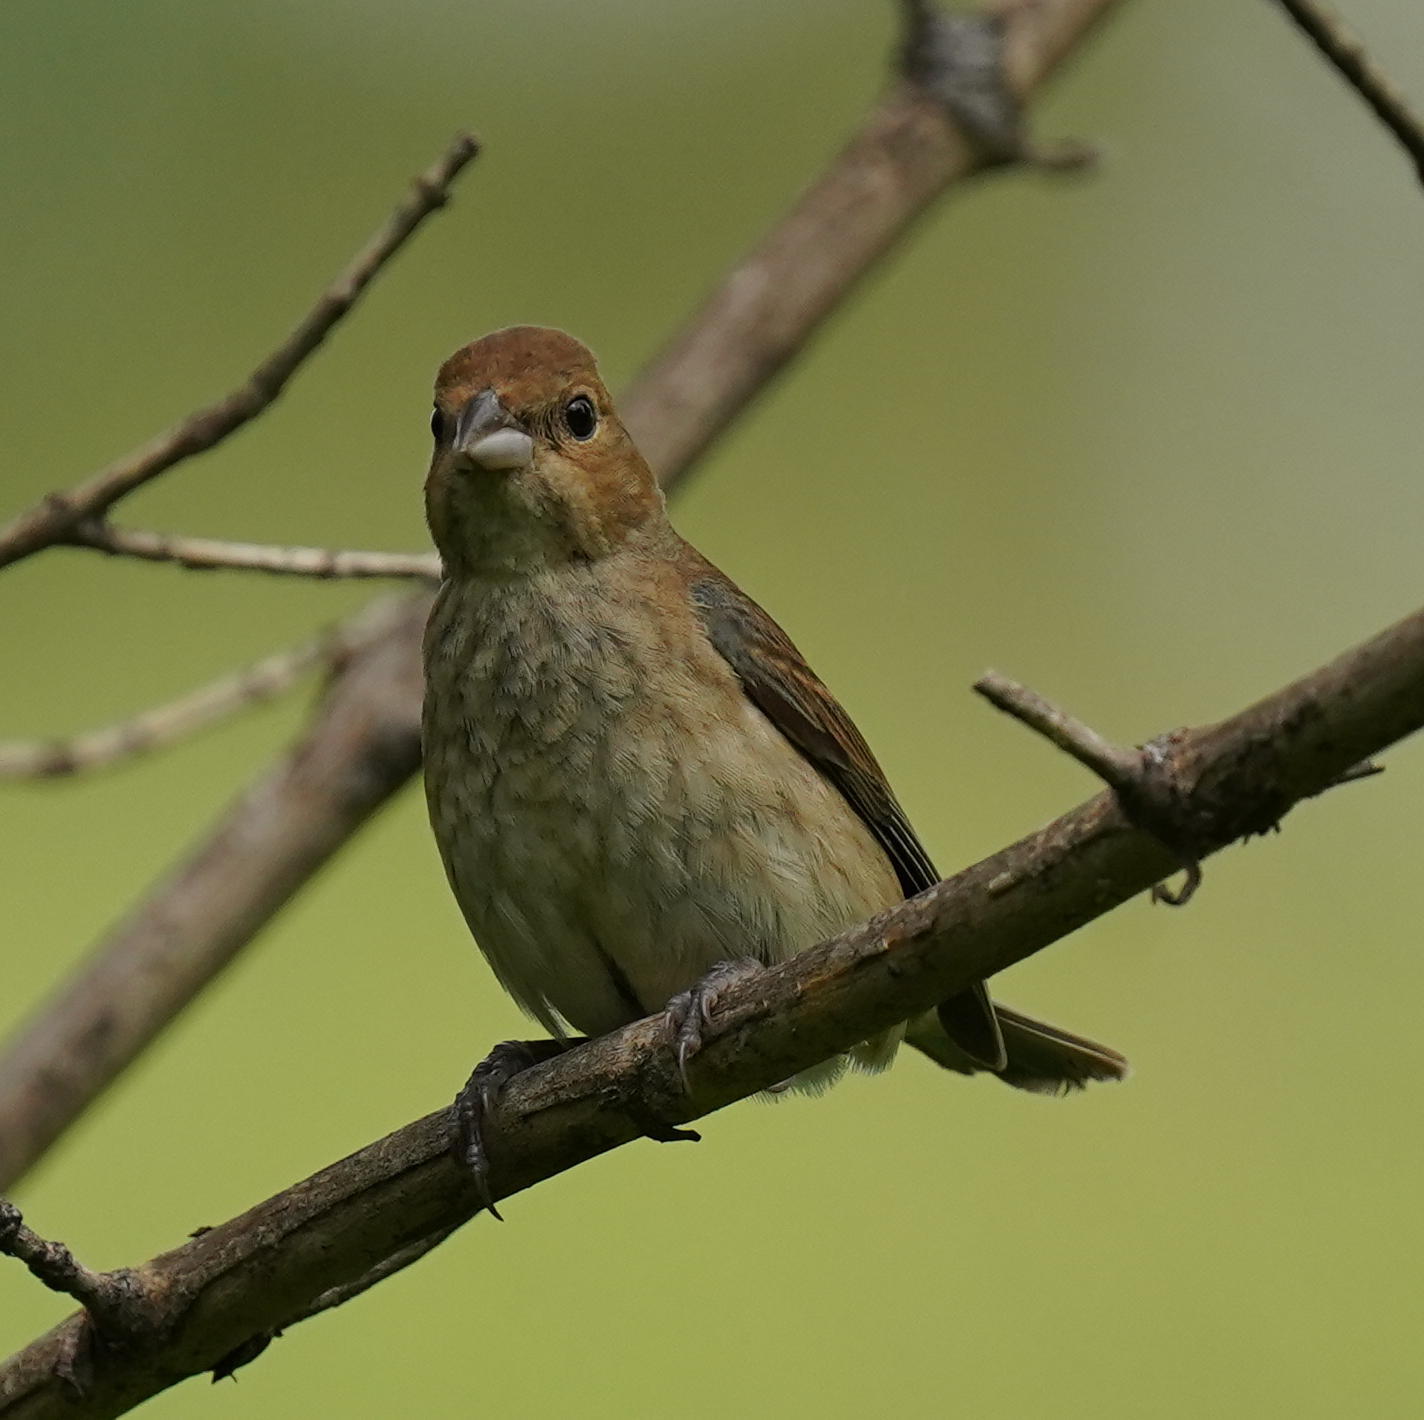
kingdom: Animalia
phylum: Chordata
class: Aves
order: Passeriformes
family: Cardinalidae
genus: Passerina
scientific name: Passerina cyanea
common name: Indigo bunting
